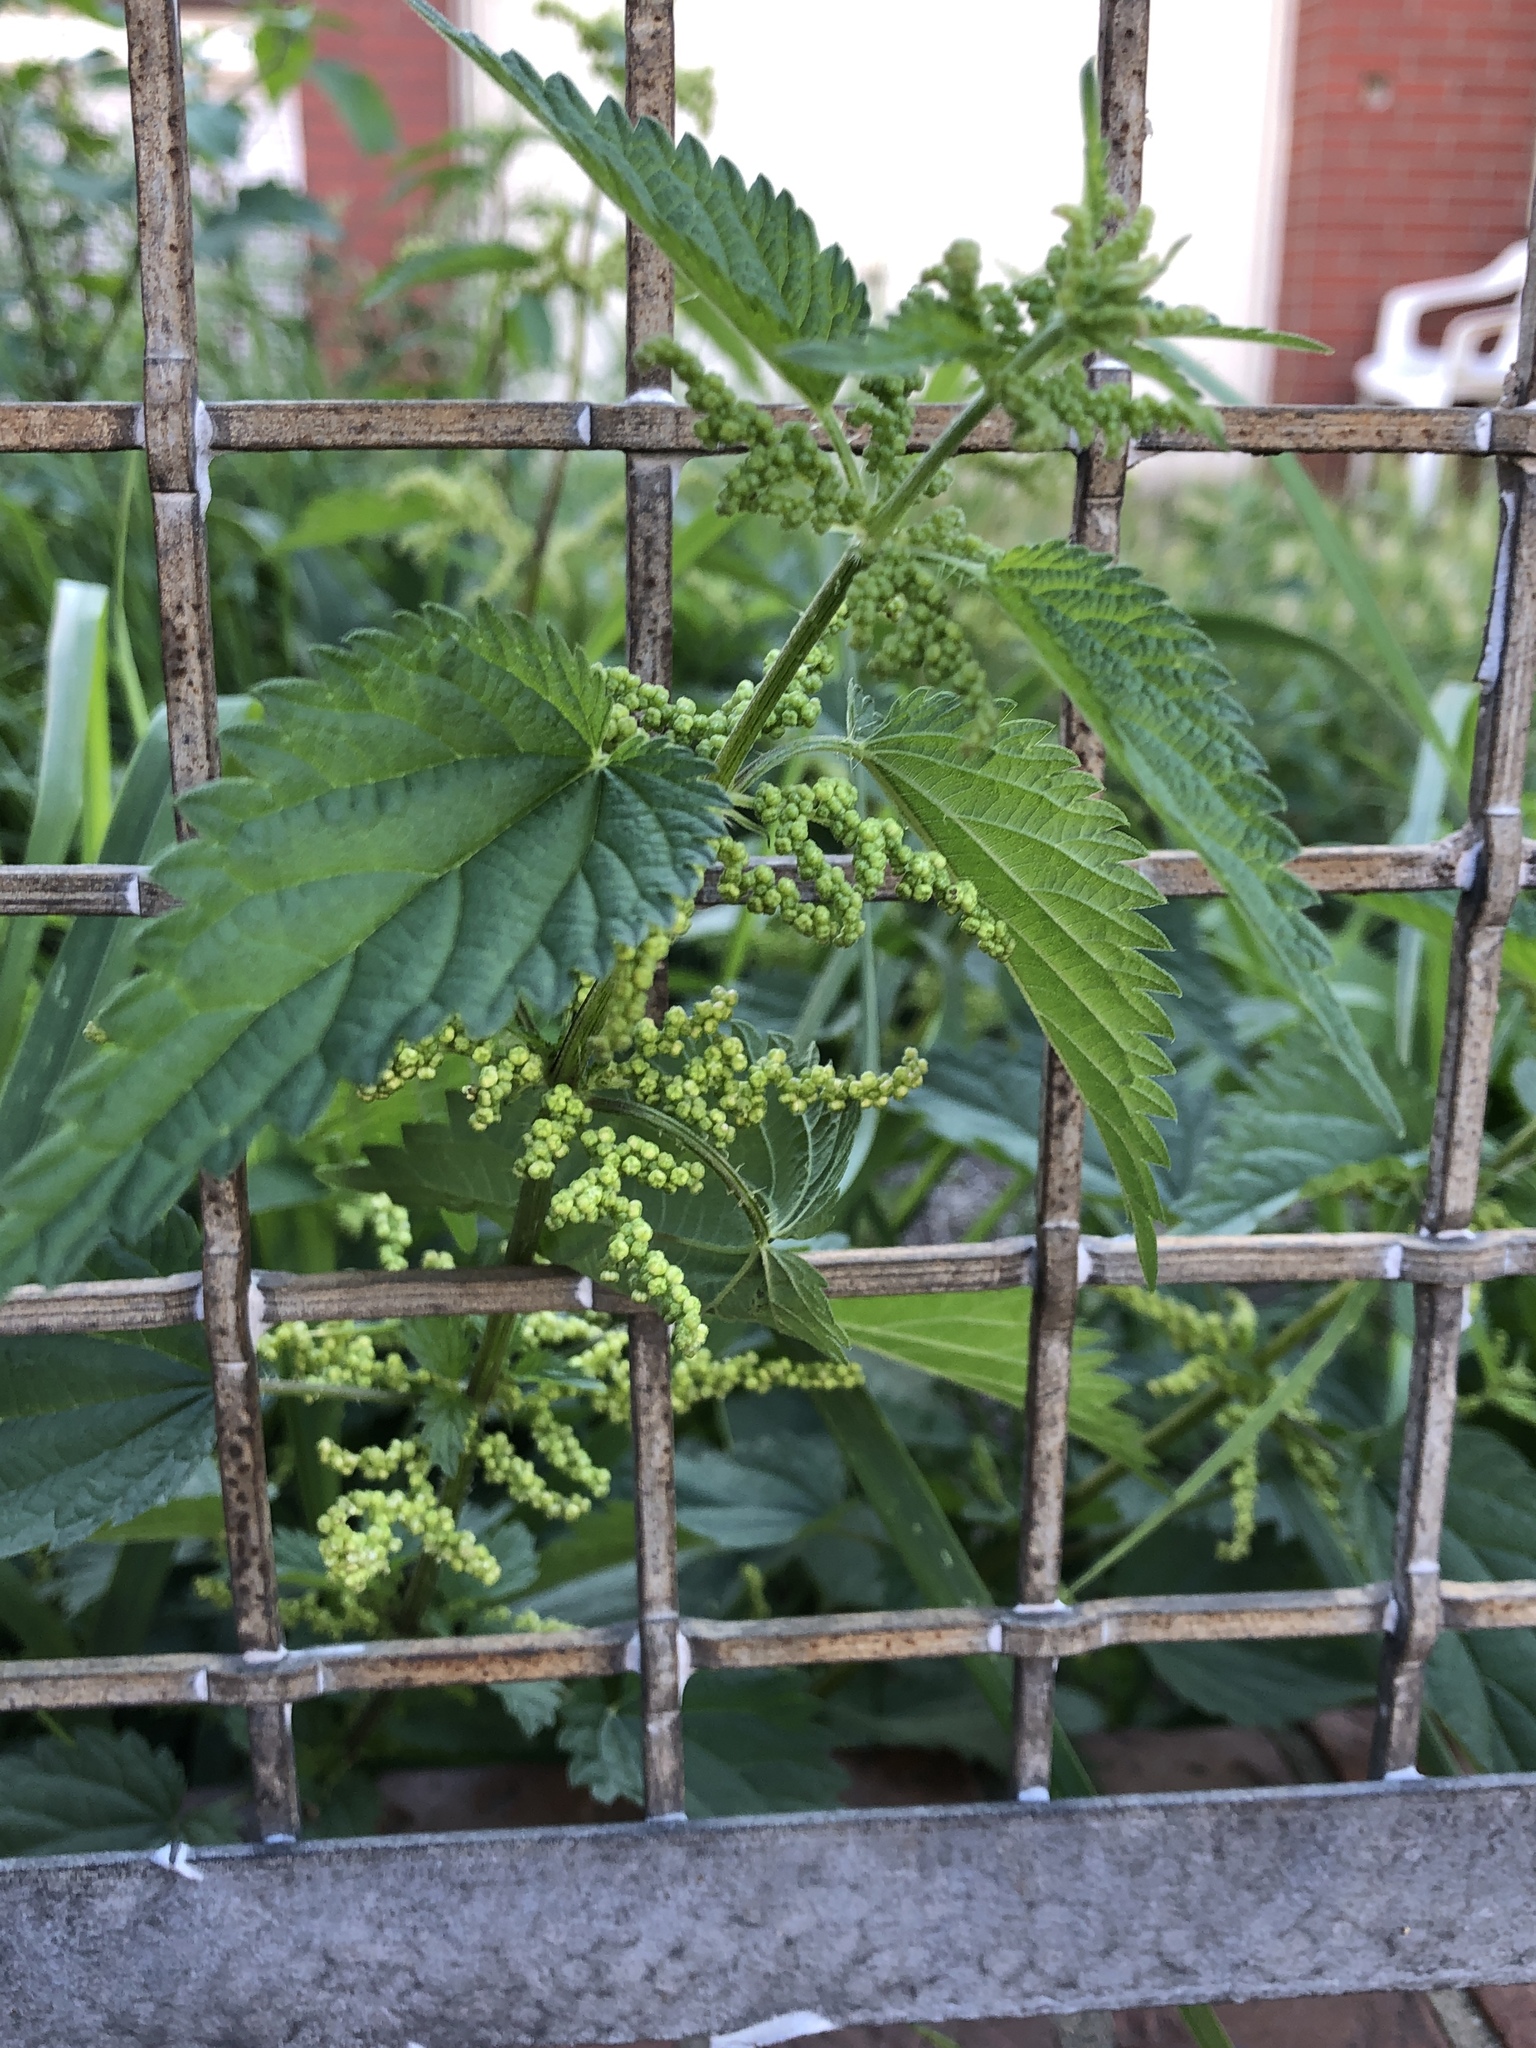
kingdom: Plantae
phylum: Tracheophyta
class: Magnoliopsida
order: Rosales
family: Urticaceae
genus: Urtica
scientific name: Urtica dioica
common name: Common nettle
